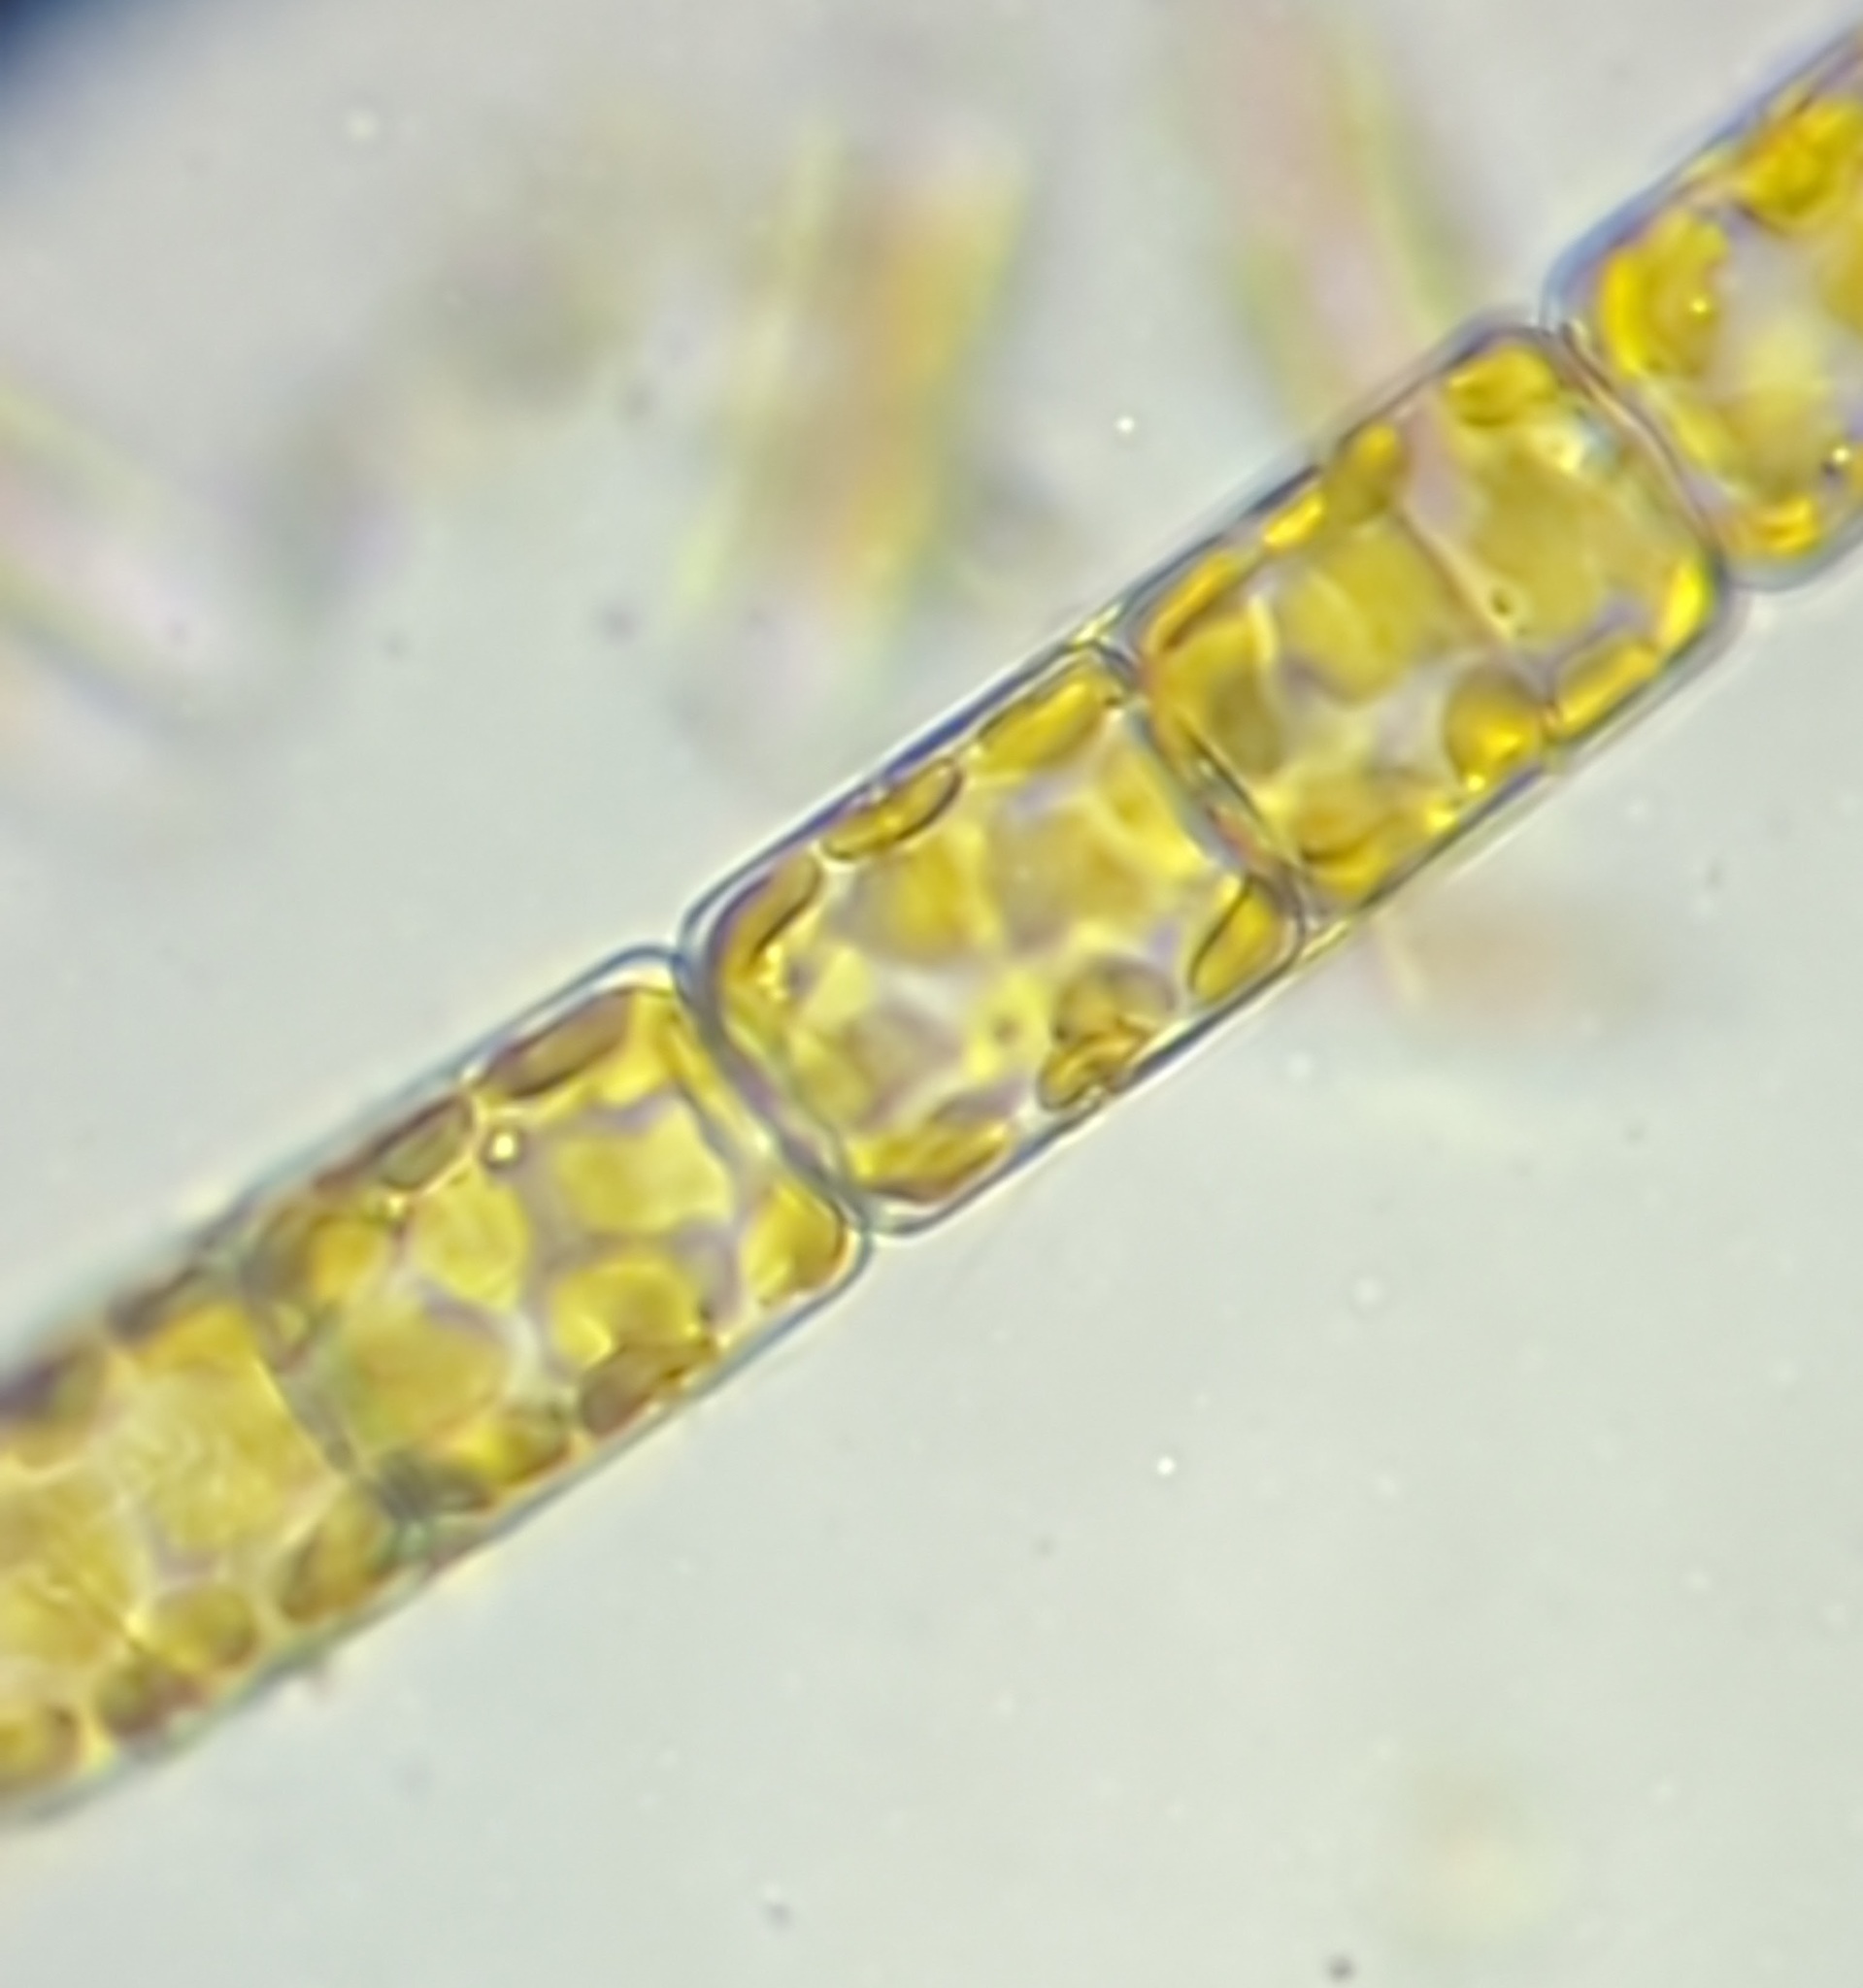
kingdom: Chromista
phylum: Ochrophyta
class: Bacillariophyceae
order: Melosirales
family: Melosiraceae
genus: Melosira
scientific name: Melosira varians
